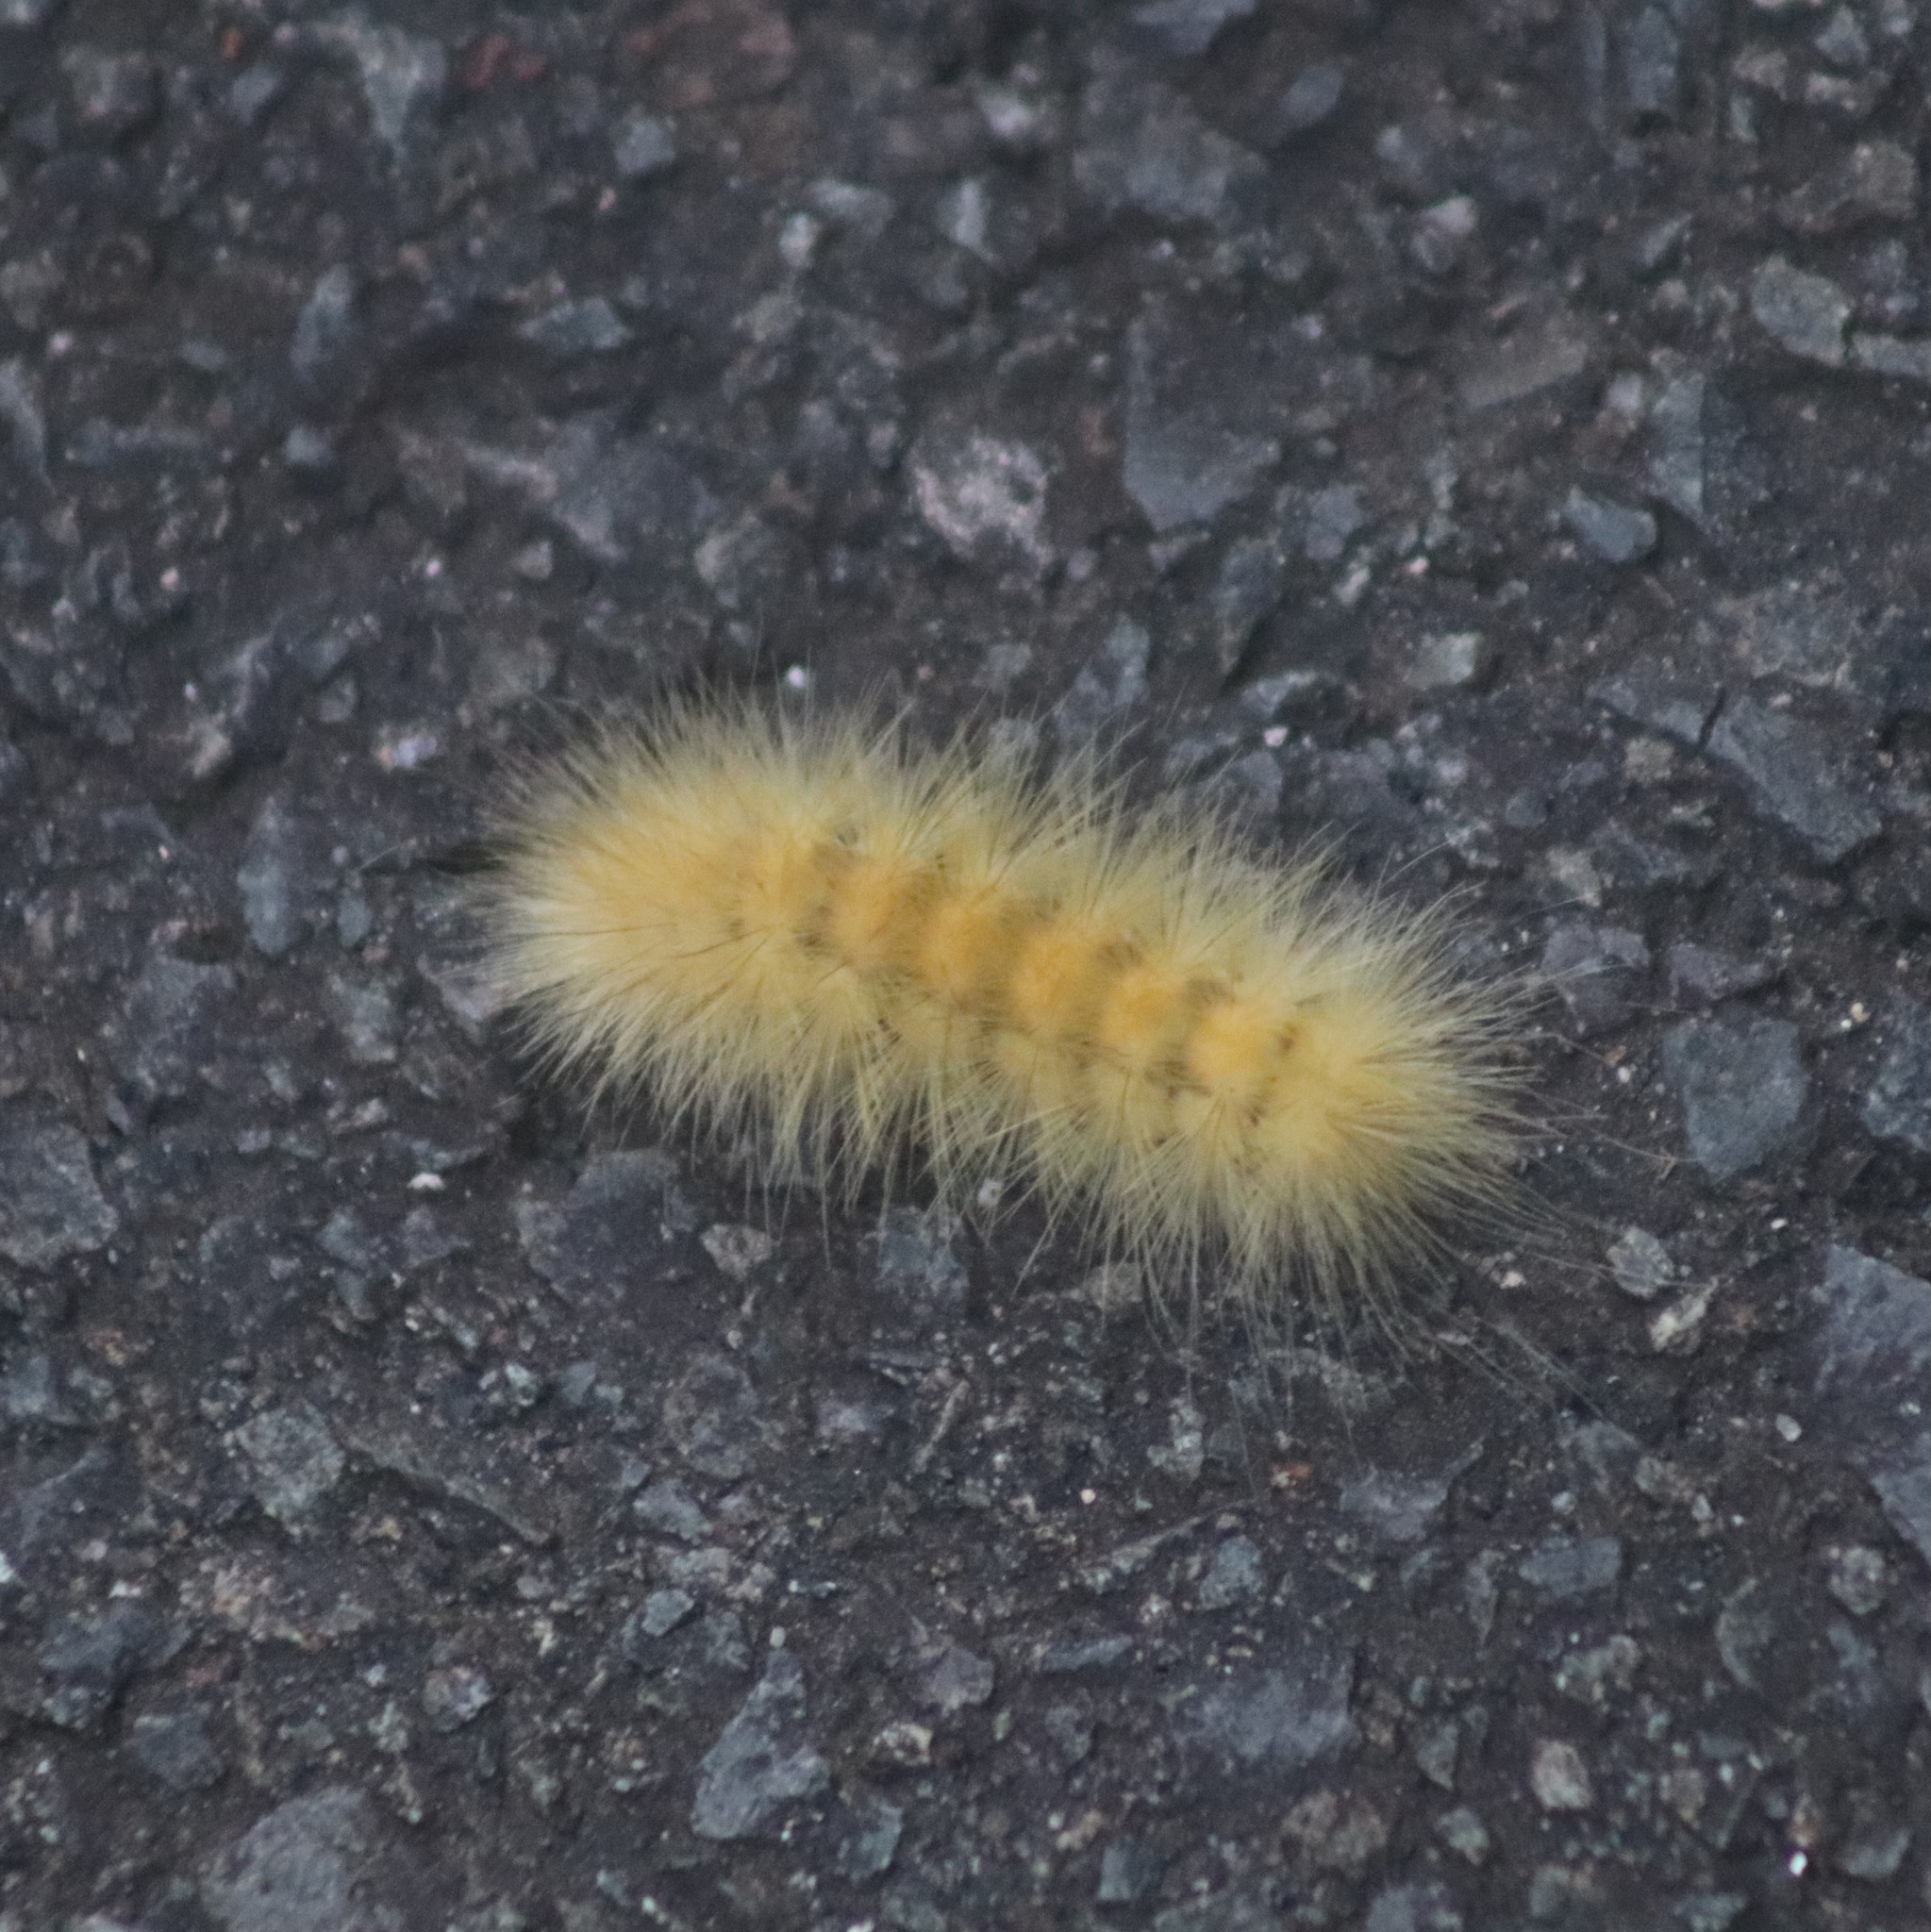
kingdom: Animalia
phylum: Arthropoda
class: Insecta
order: Lepidoptera
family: Erebidae
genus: Spilosoma
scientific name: Spilosoma virginica
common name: Virginia tiger moth
